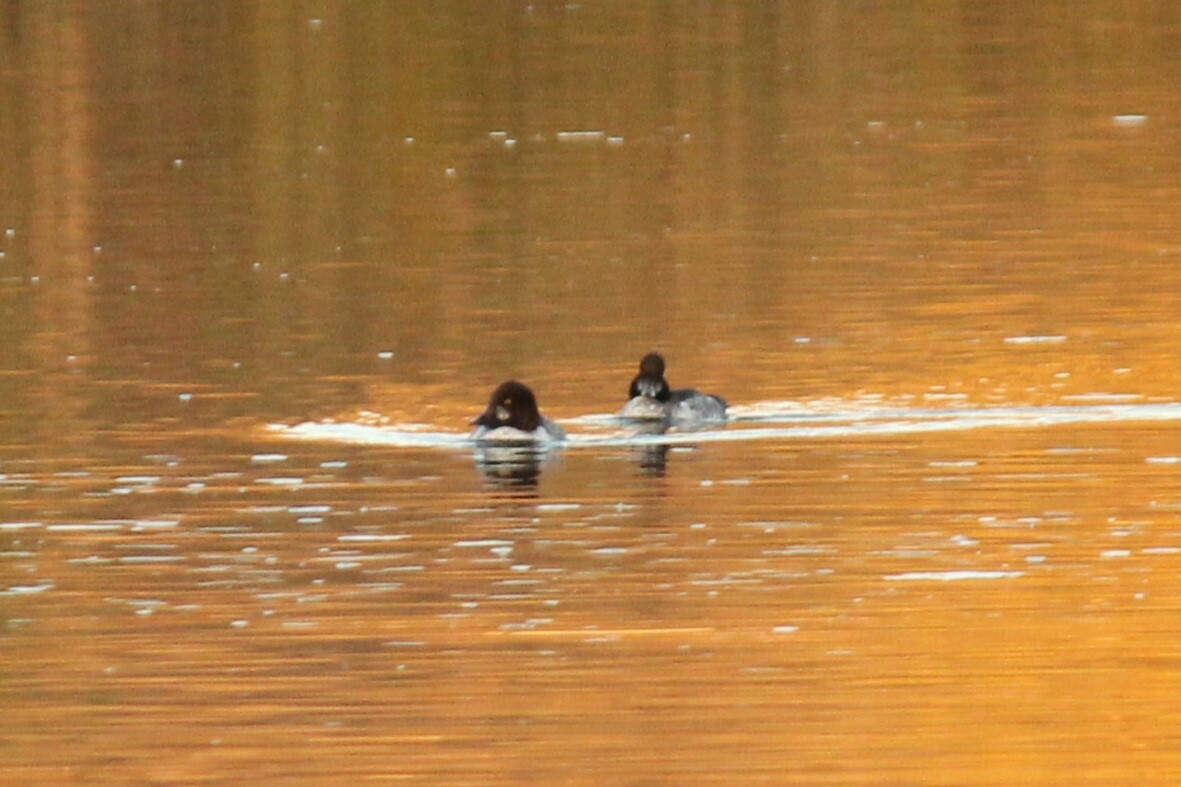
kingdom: Animalia
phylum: Chordata
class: Aves
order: Anseriformes
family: Anatidae
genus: Bucephala
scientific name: Bucephala clangula
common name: Common goldeneye
